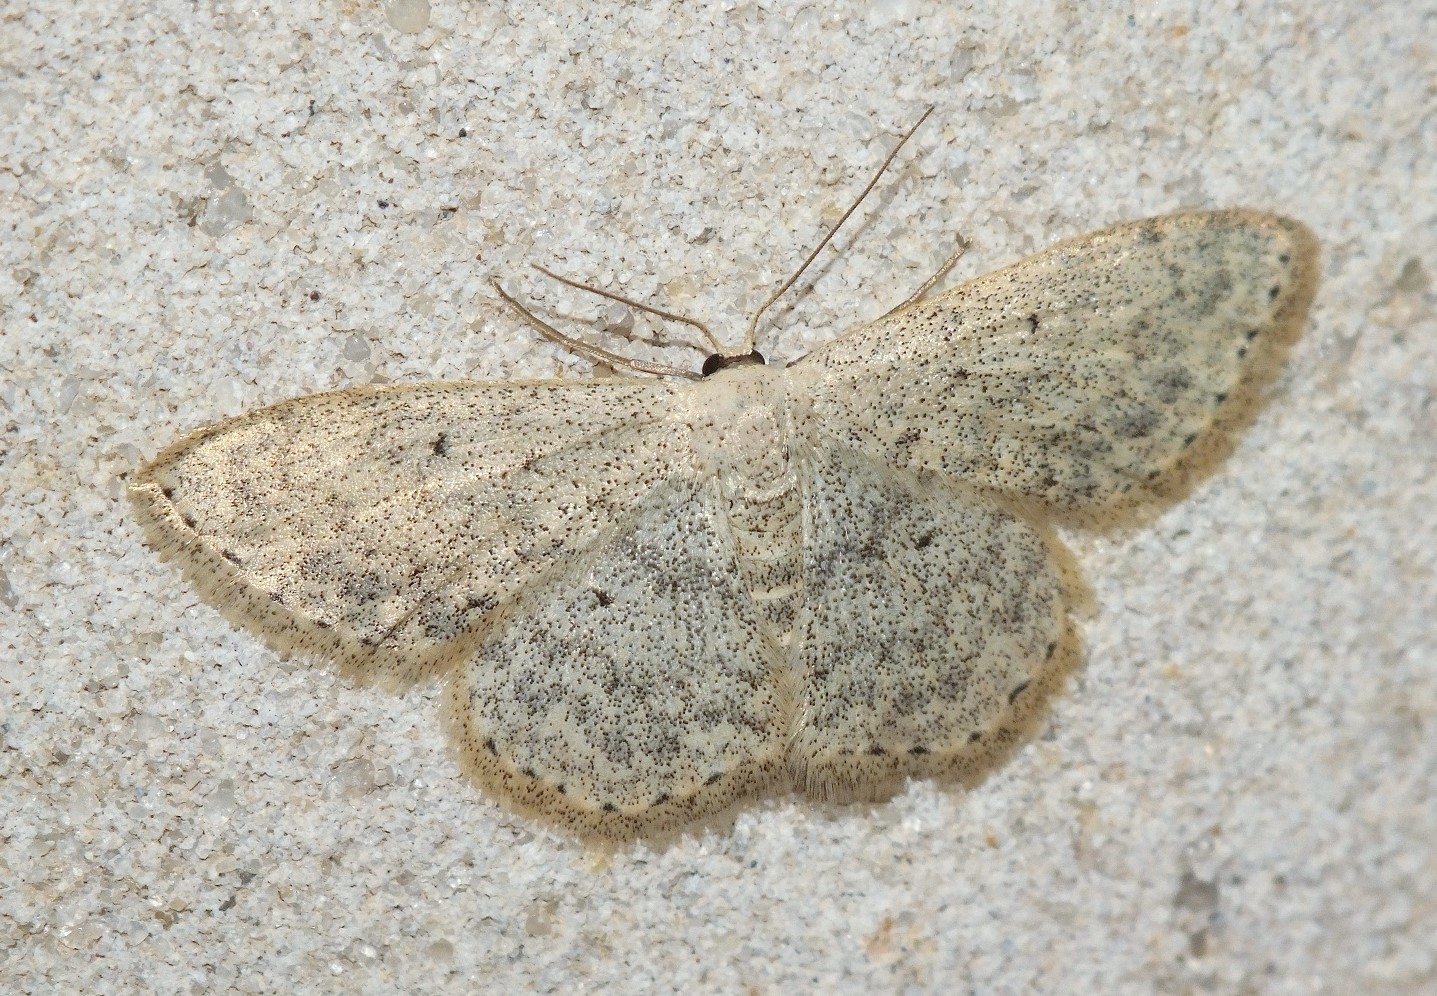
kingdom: Animalia
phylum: Arthropoda
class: Insecta
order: Lepidoptera
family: Geometridae
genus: Scopula
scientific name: Scopula marginepunctata
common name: Mullein wave
